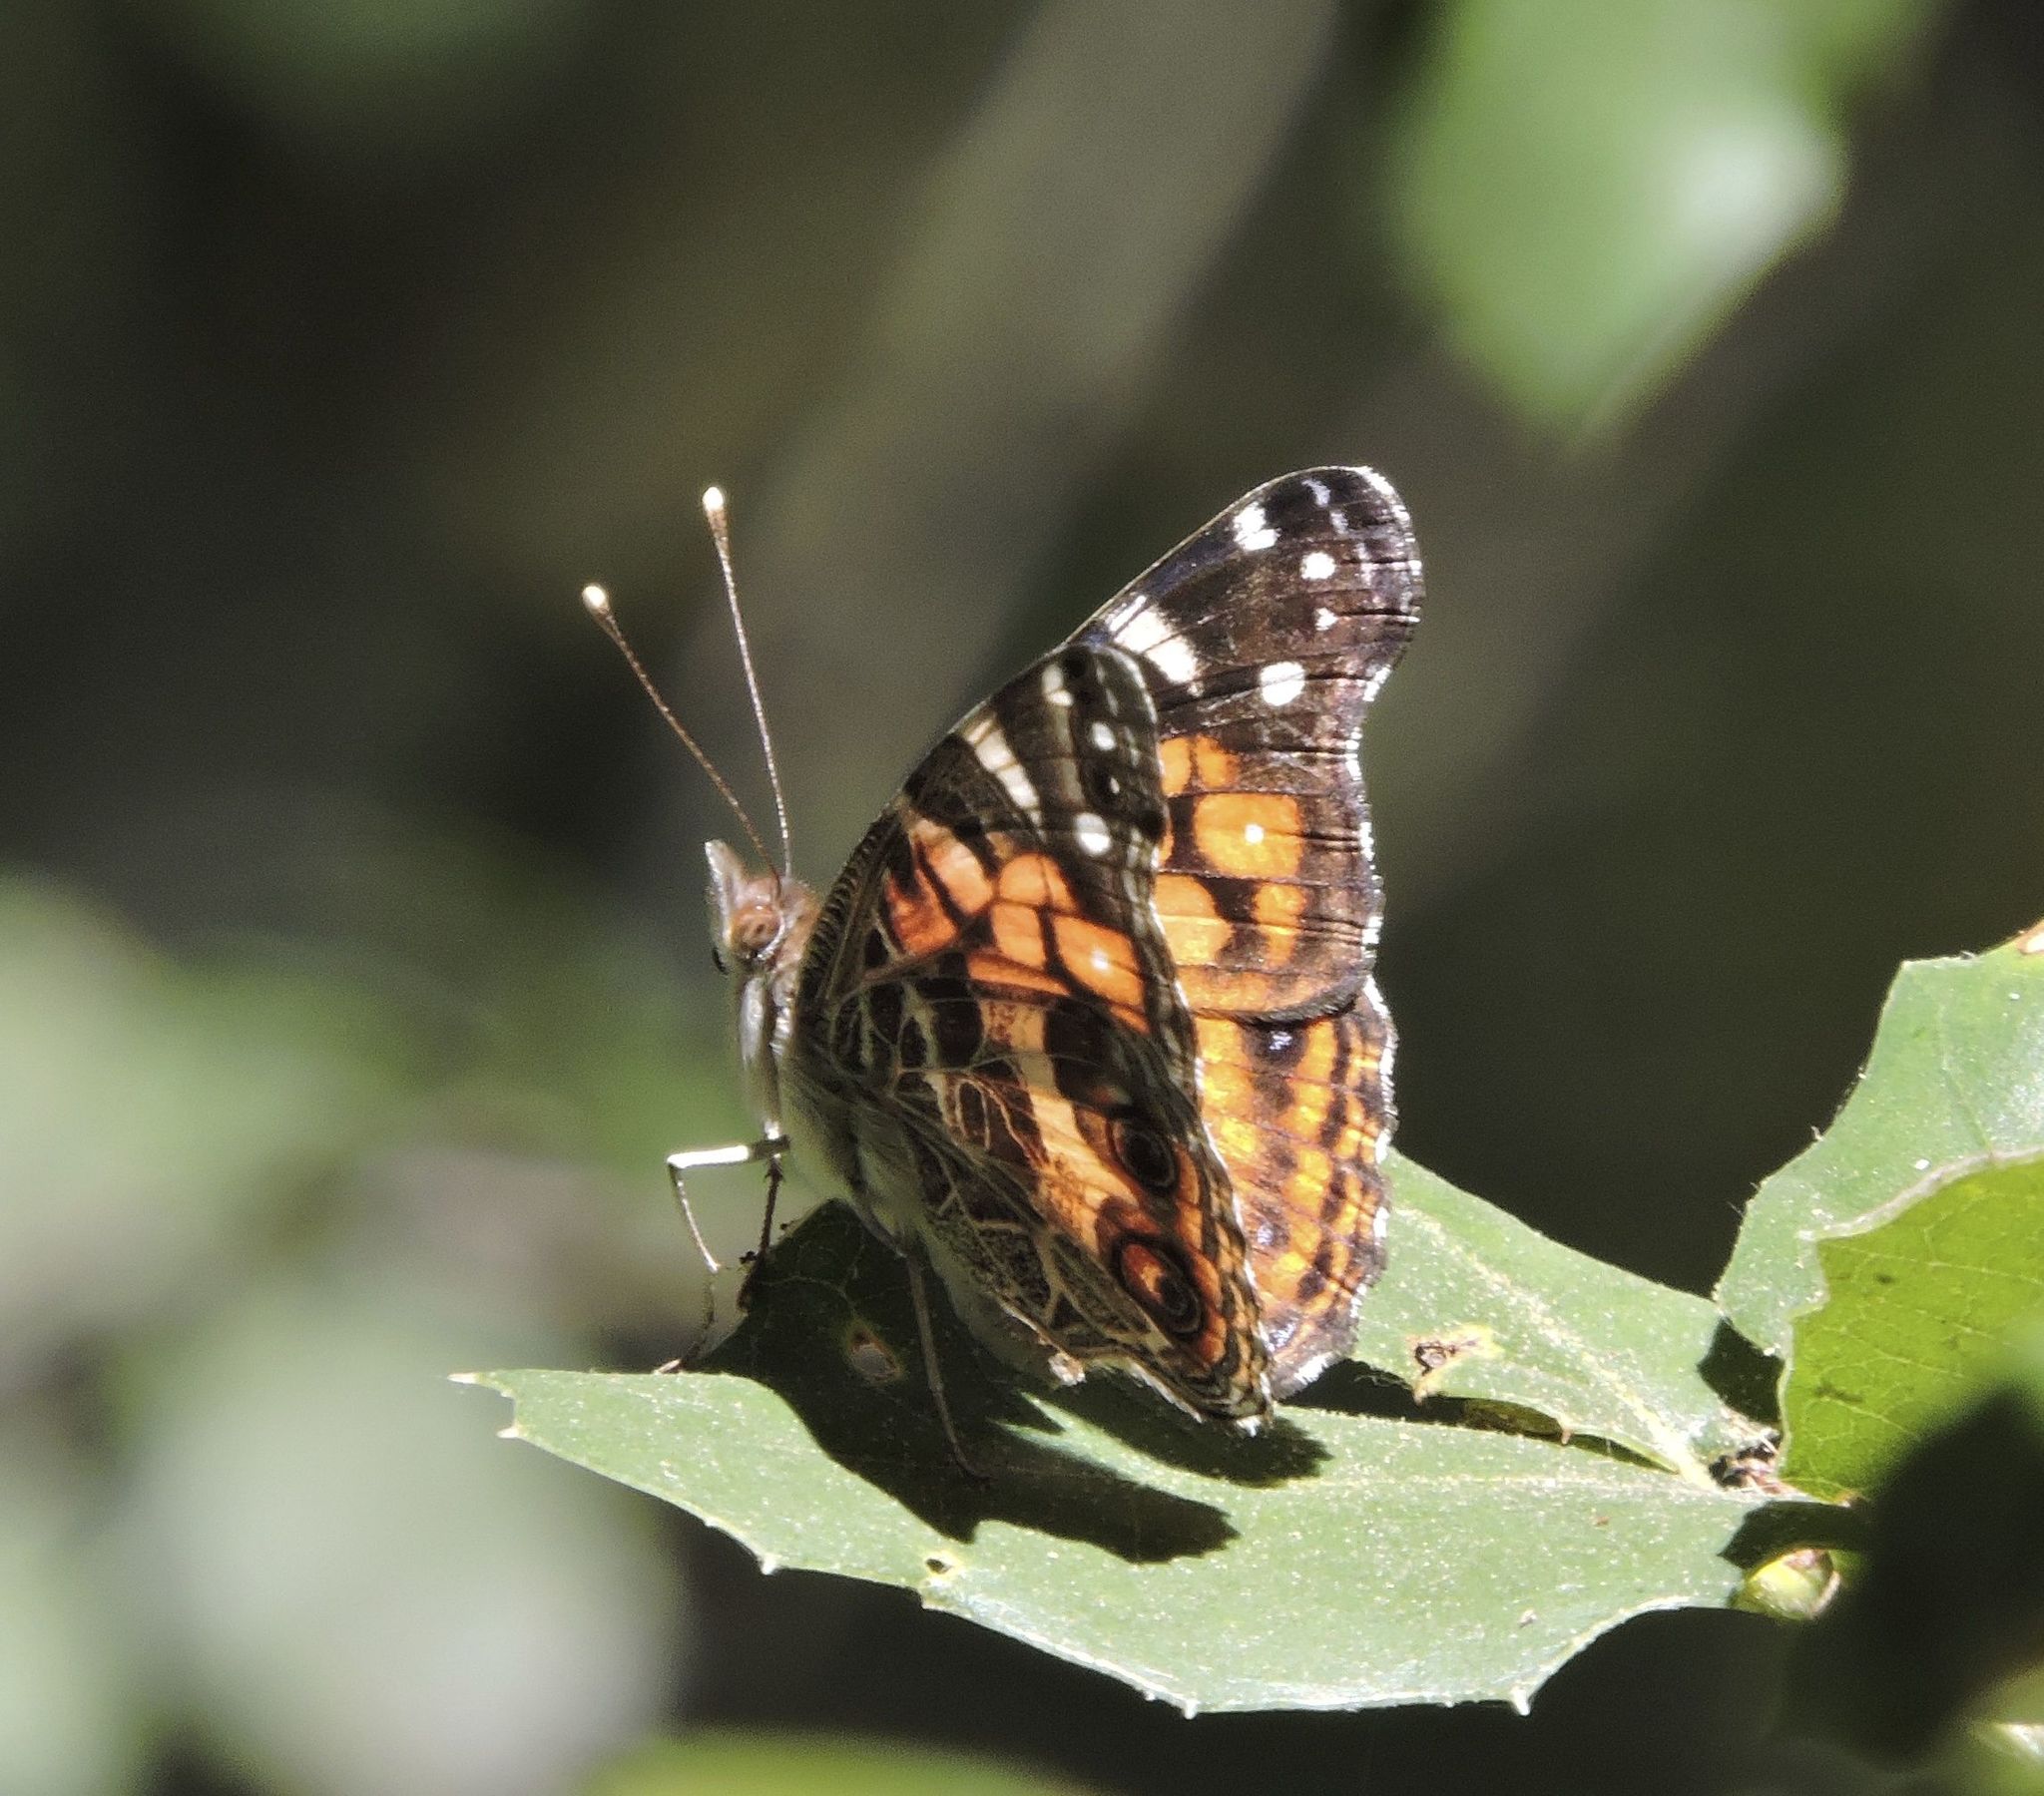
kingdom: Animalia
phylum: Arthropoda
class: Insecta
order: Lepidoptera
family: Nymphalidae
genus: Vanessa
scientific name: Vanessa virginiensis
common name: American lady
